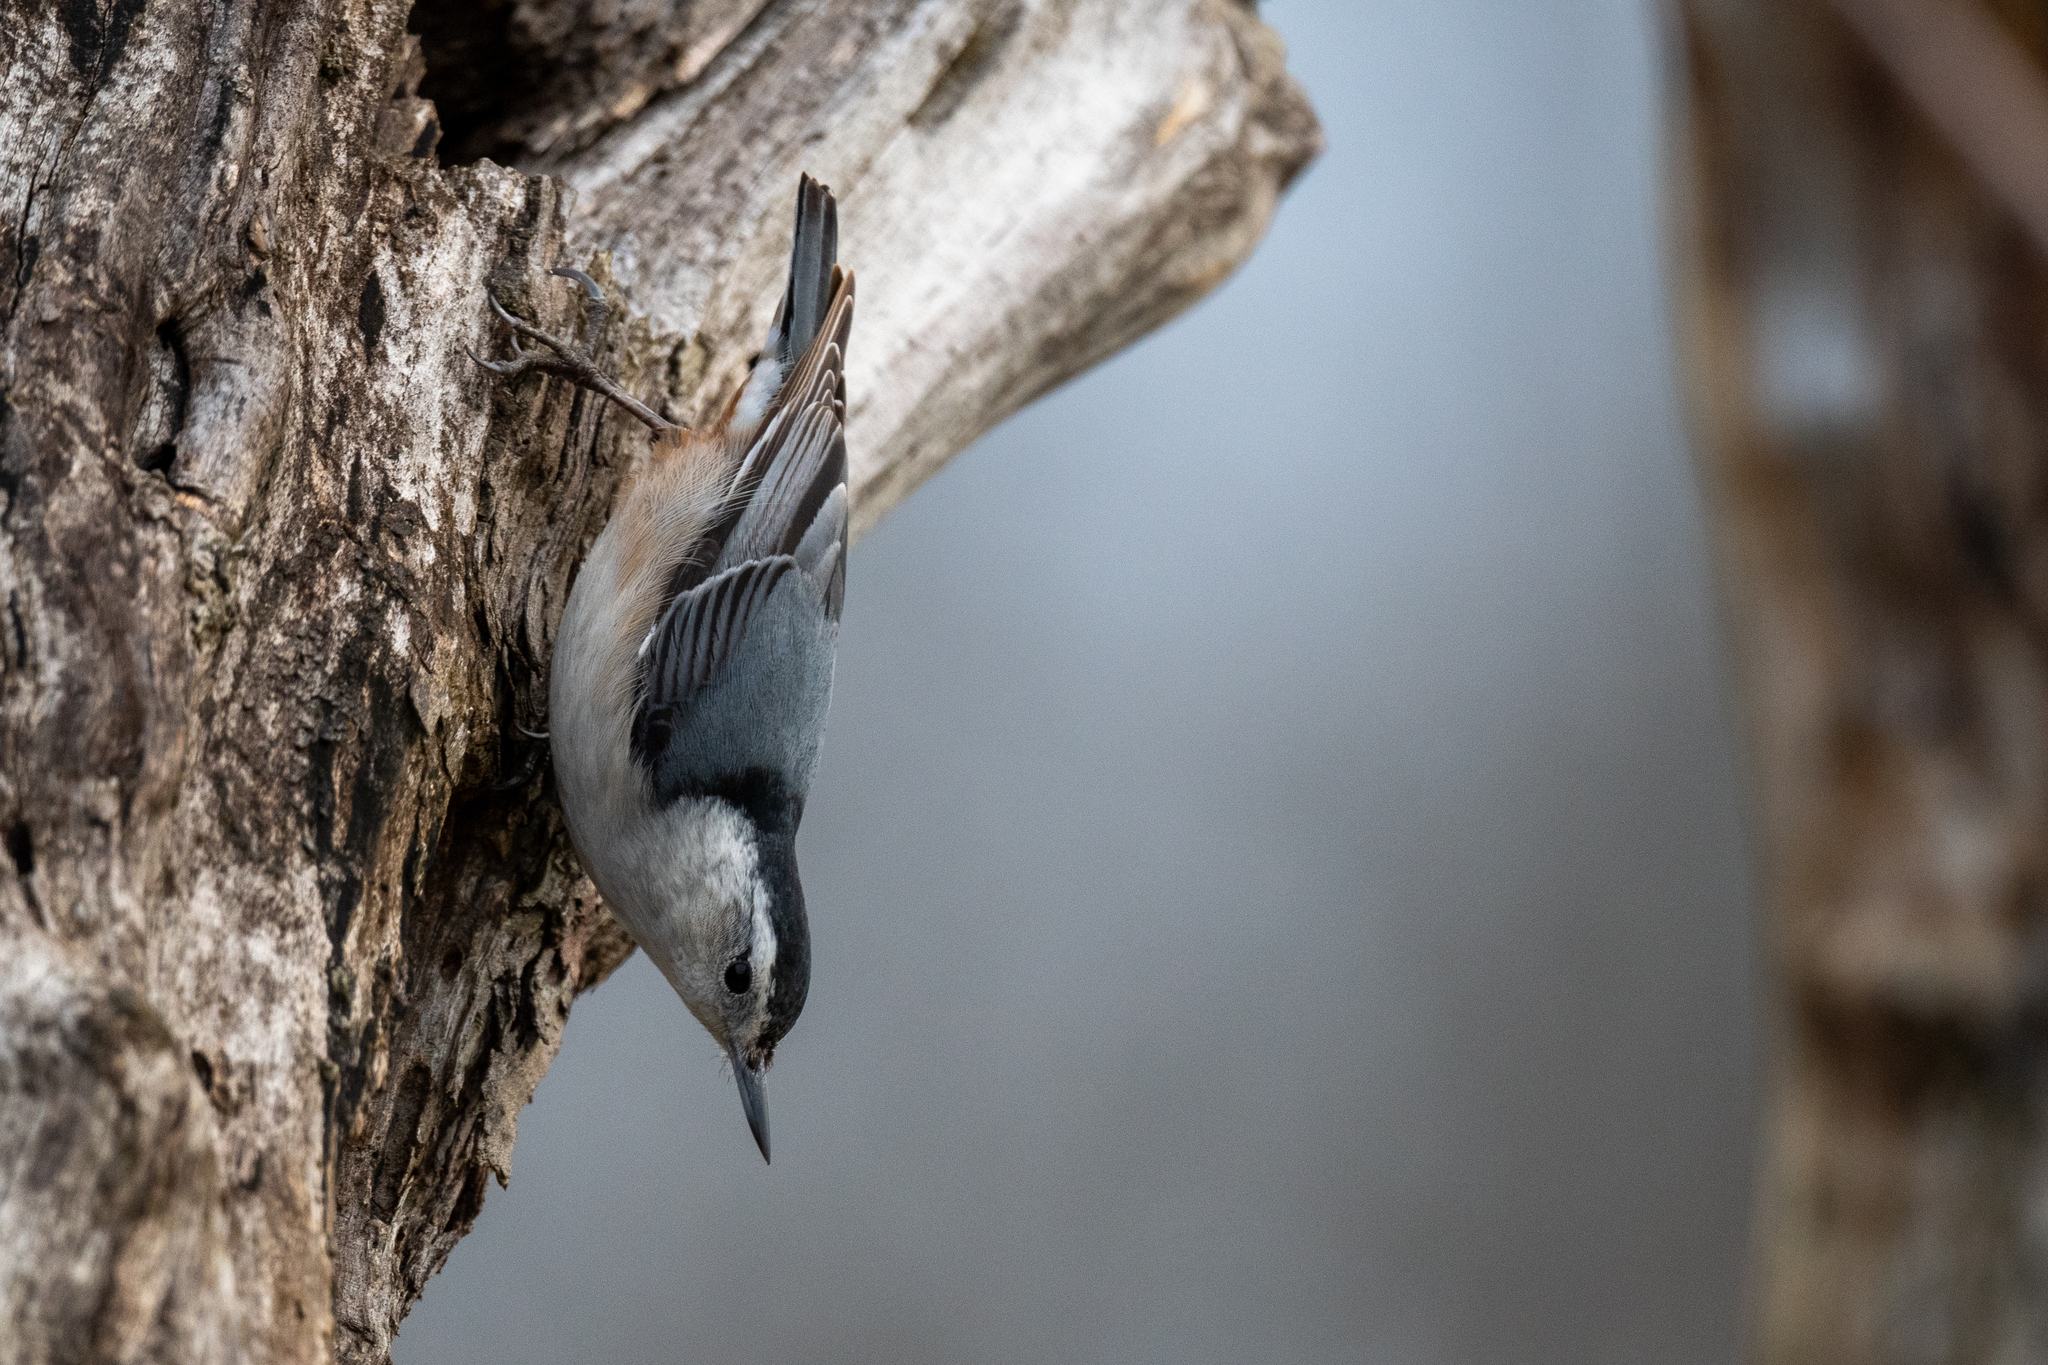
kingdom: Animalia
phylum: Chordata
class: Aves
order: Passeriformes
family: Sittidae
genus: Sitta
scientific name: Sitta carolinensis
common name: White-breasted nuthatch
